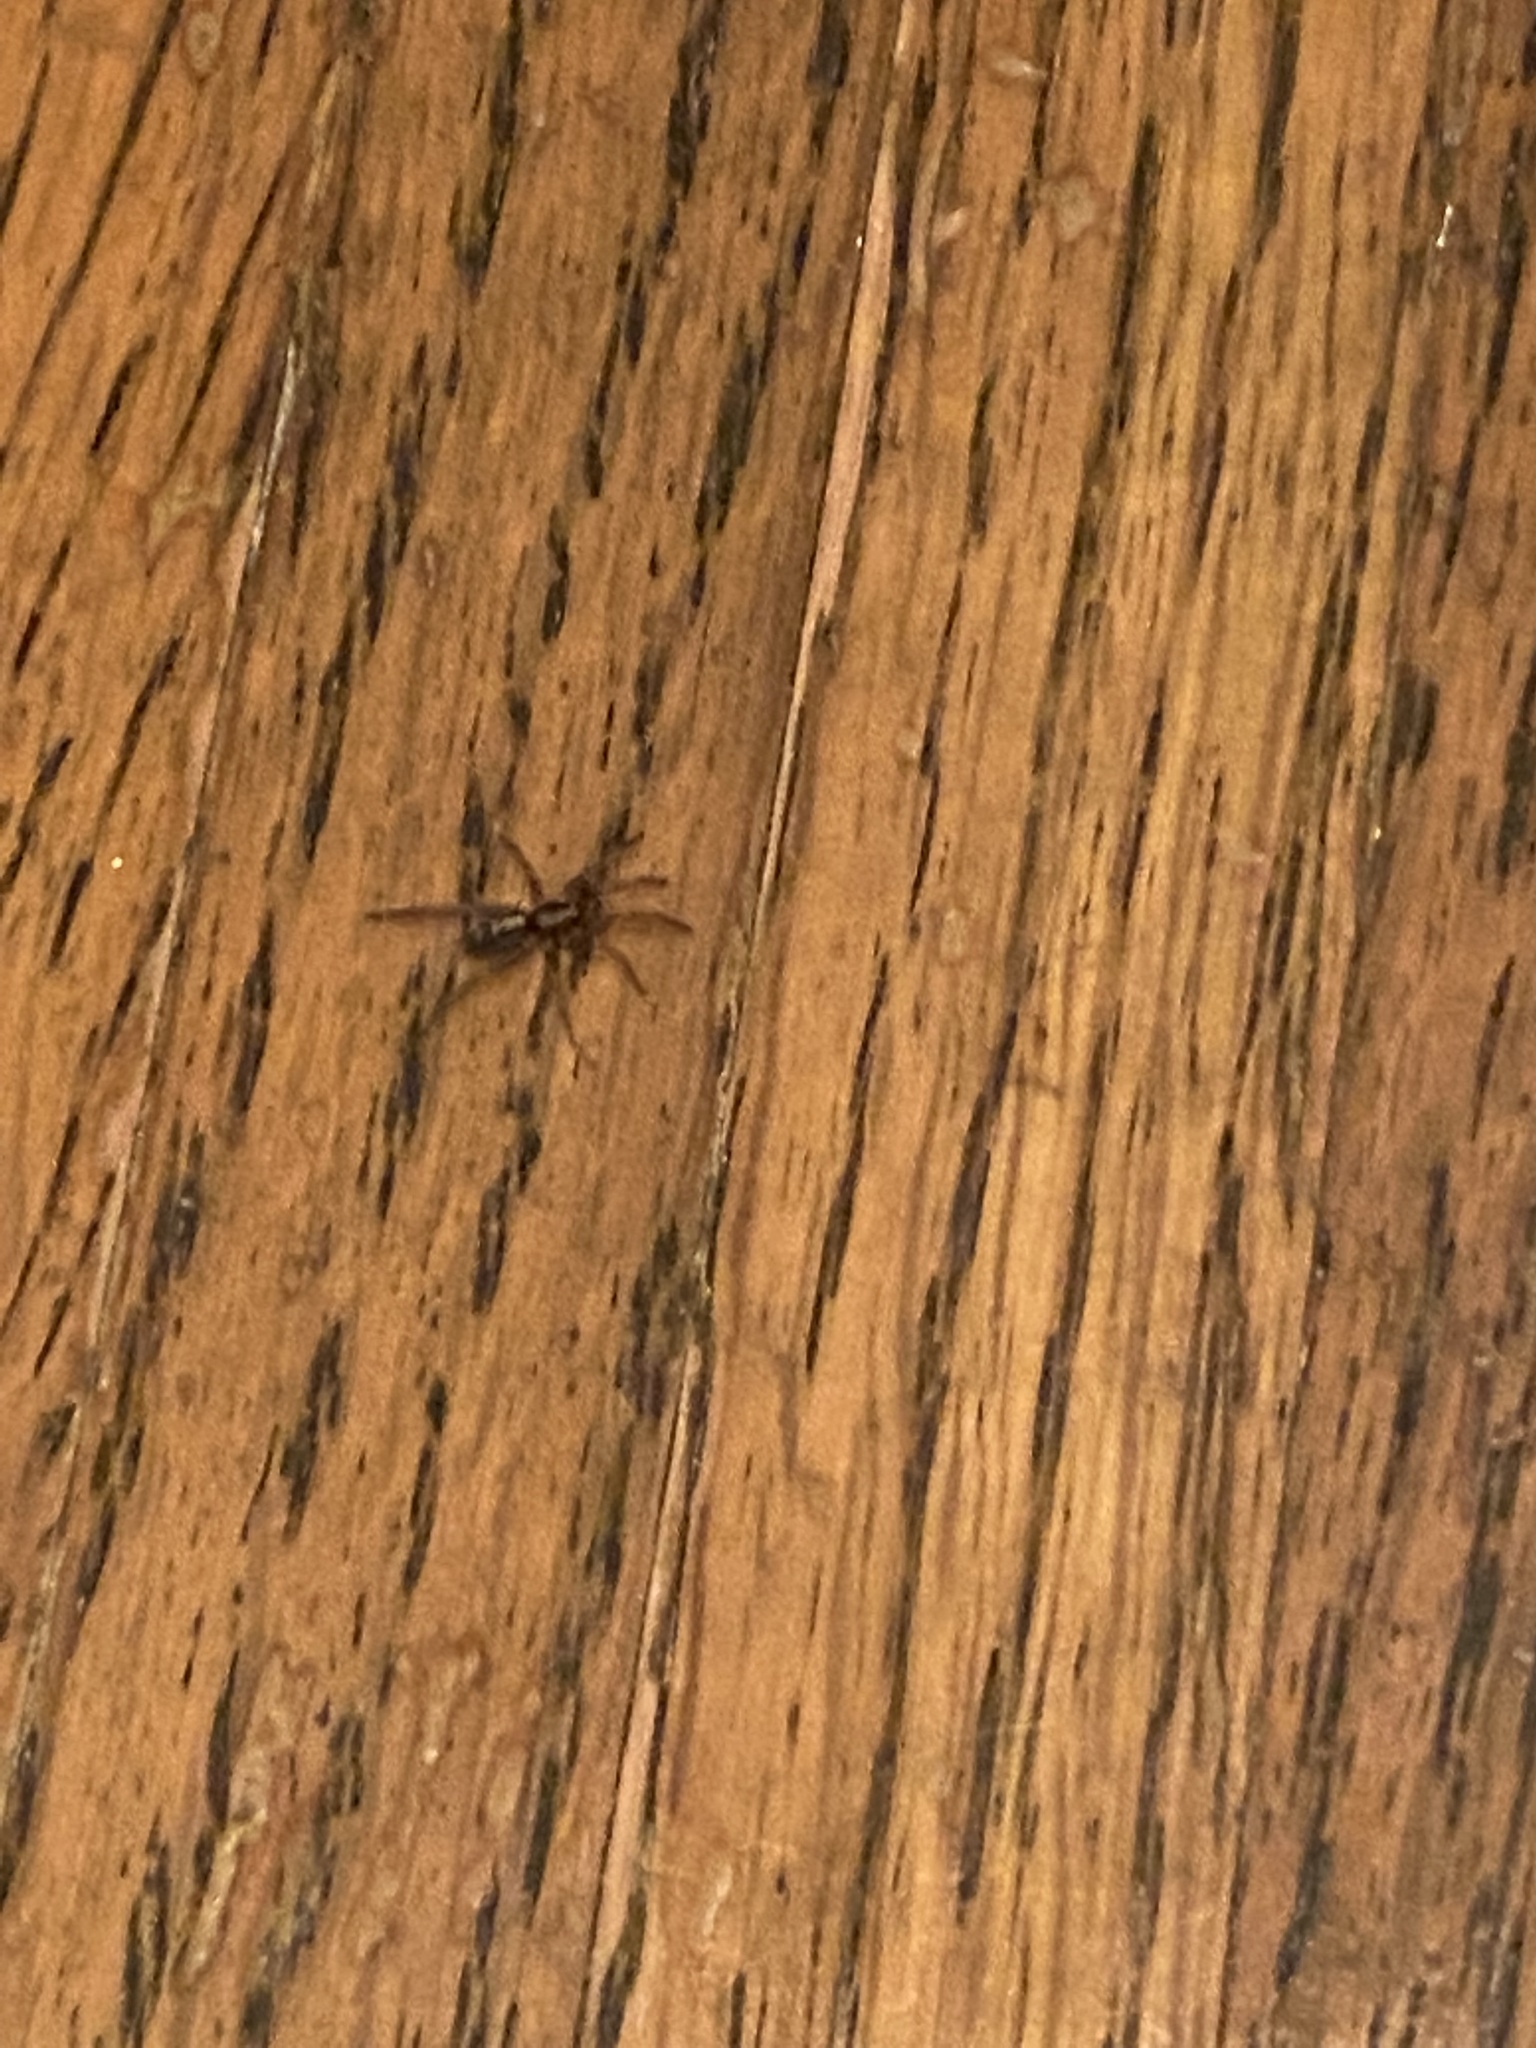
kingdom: Animalia
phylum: Arthropoda
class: Arachnida
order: Araneae
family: Gnaphosidae
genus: Herpyllus
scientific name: Herpyllus ecclesiasticus
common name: Eastern parson spider
